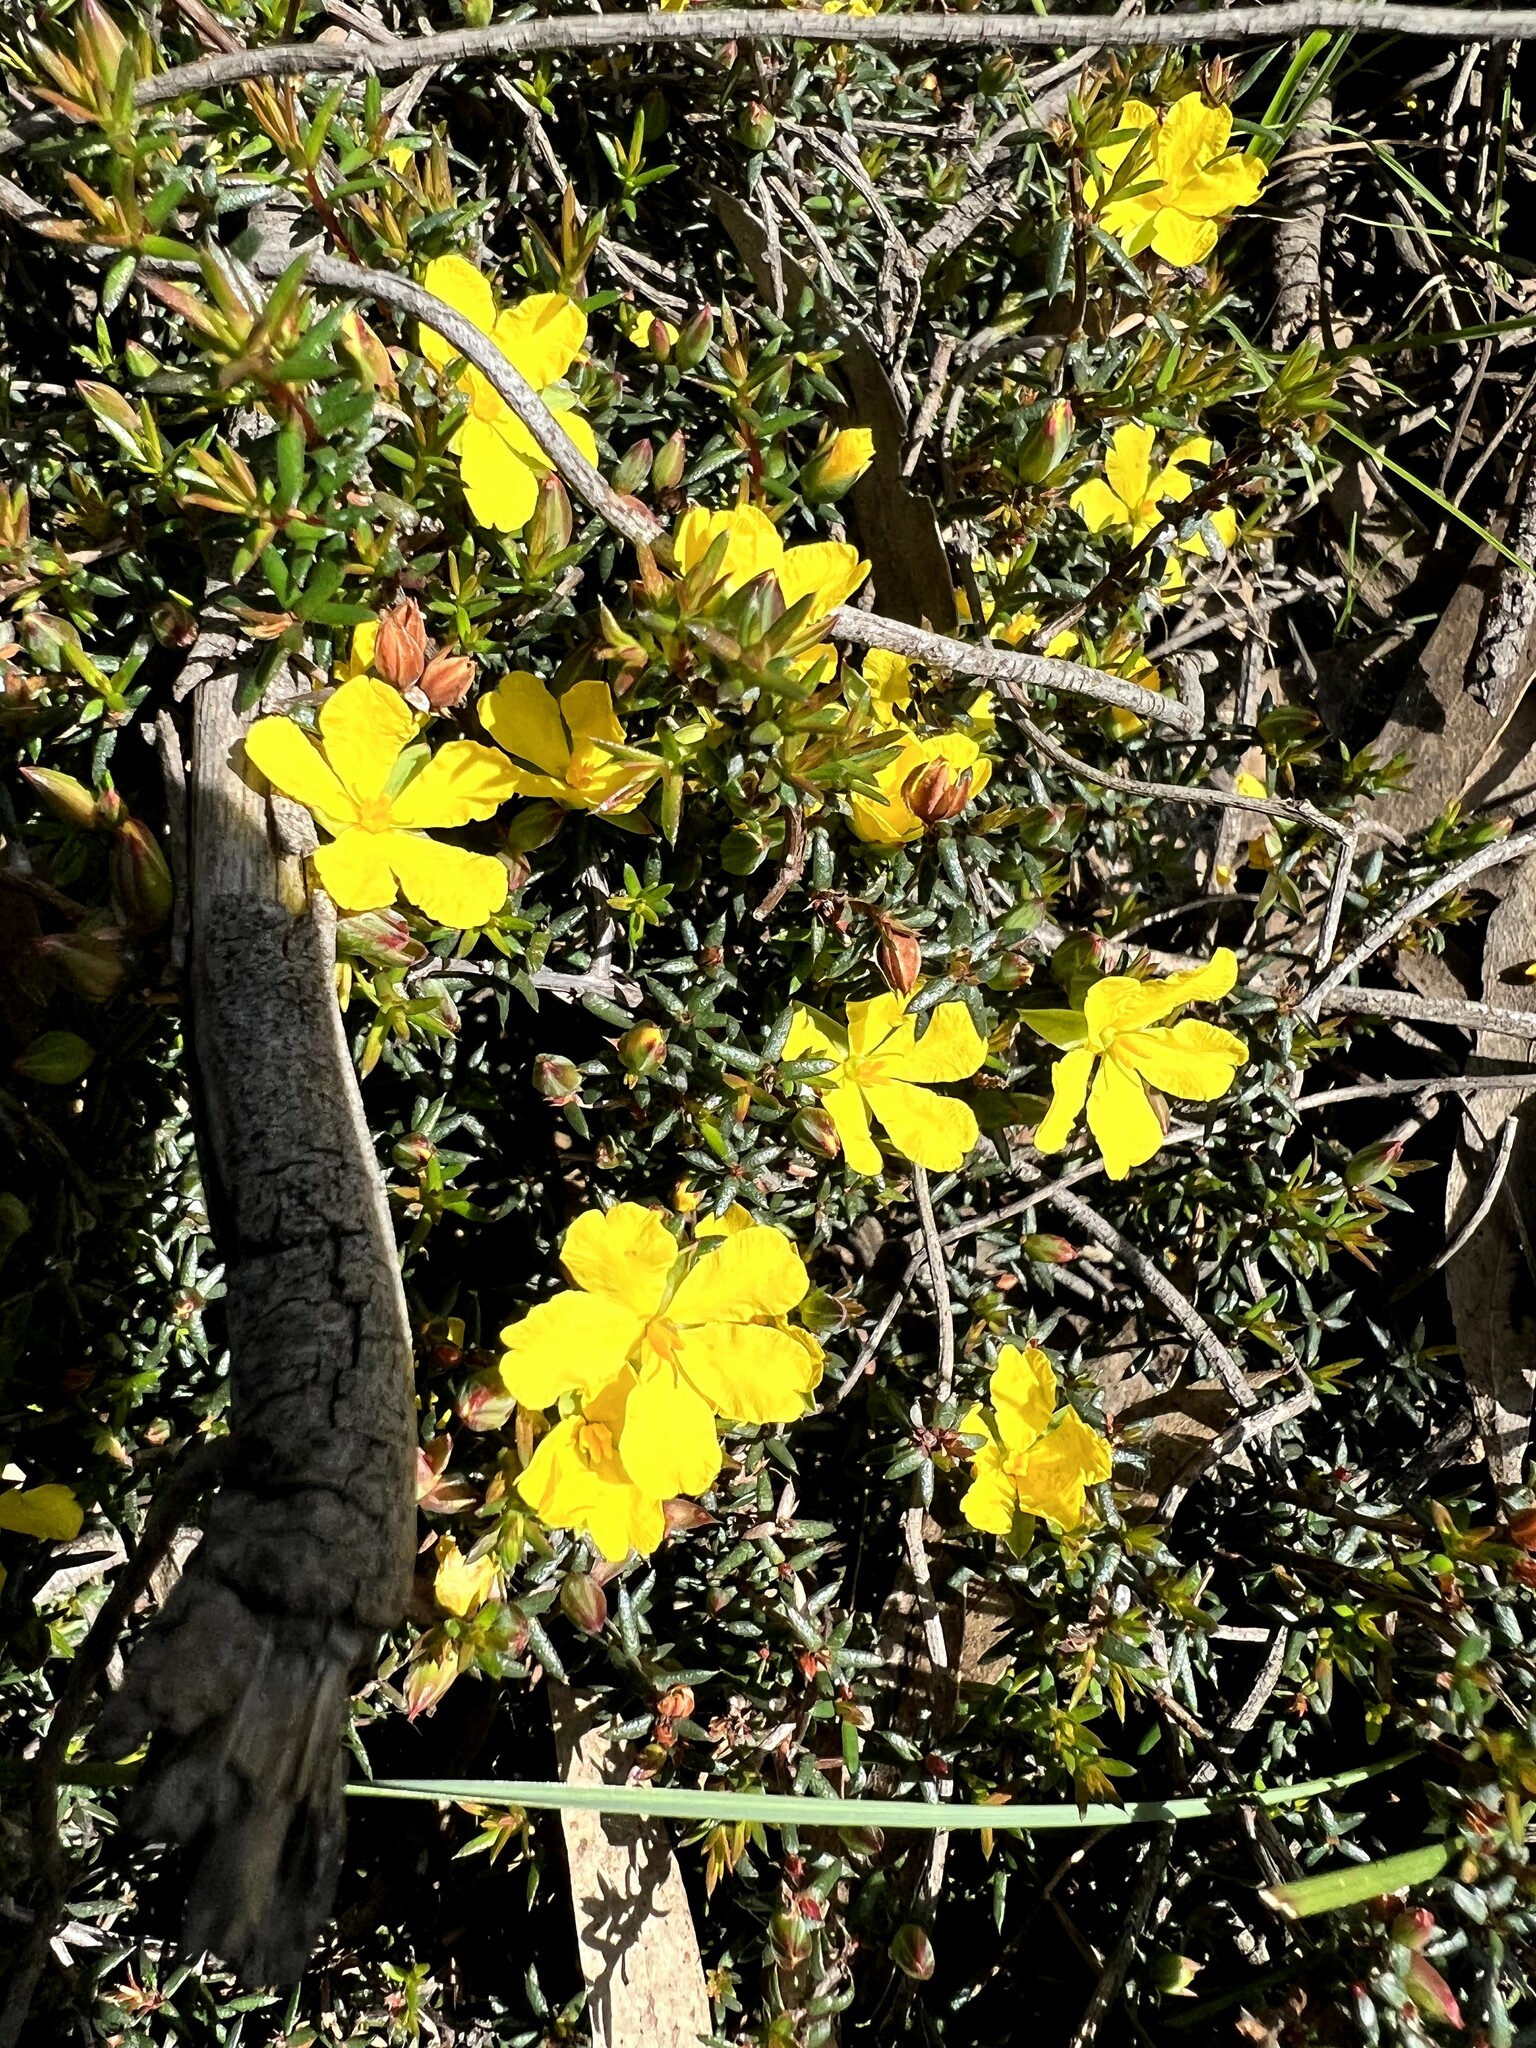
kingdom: Plantae
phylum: Tracheophyta
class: Magnoliopsida
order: Dilleniales
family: Dilleniaceae
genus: Hibbertia
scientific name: Hibbertia exutiacies
